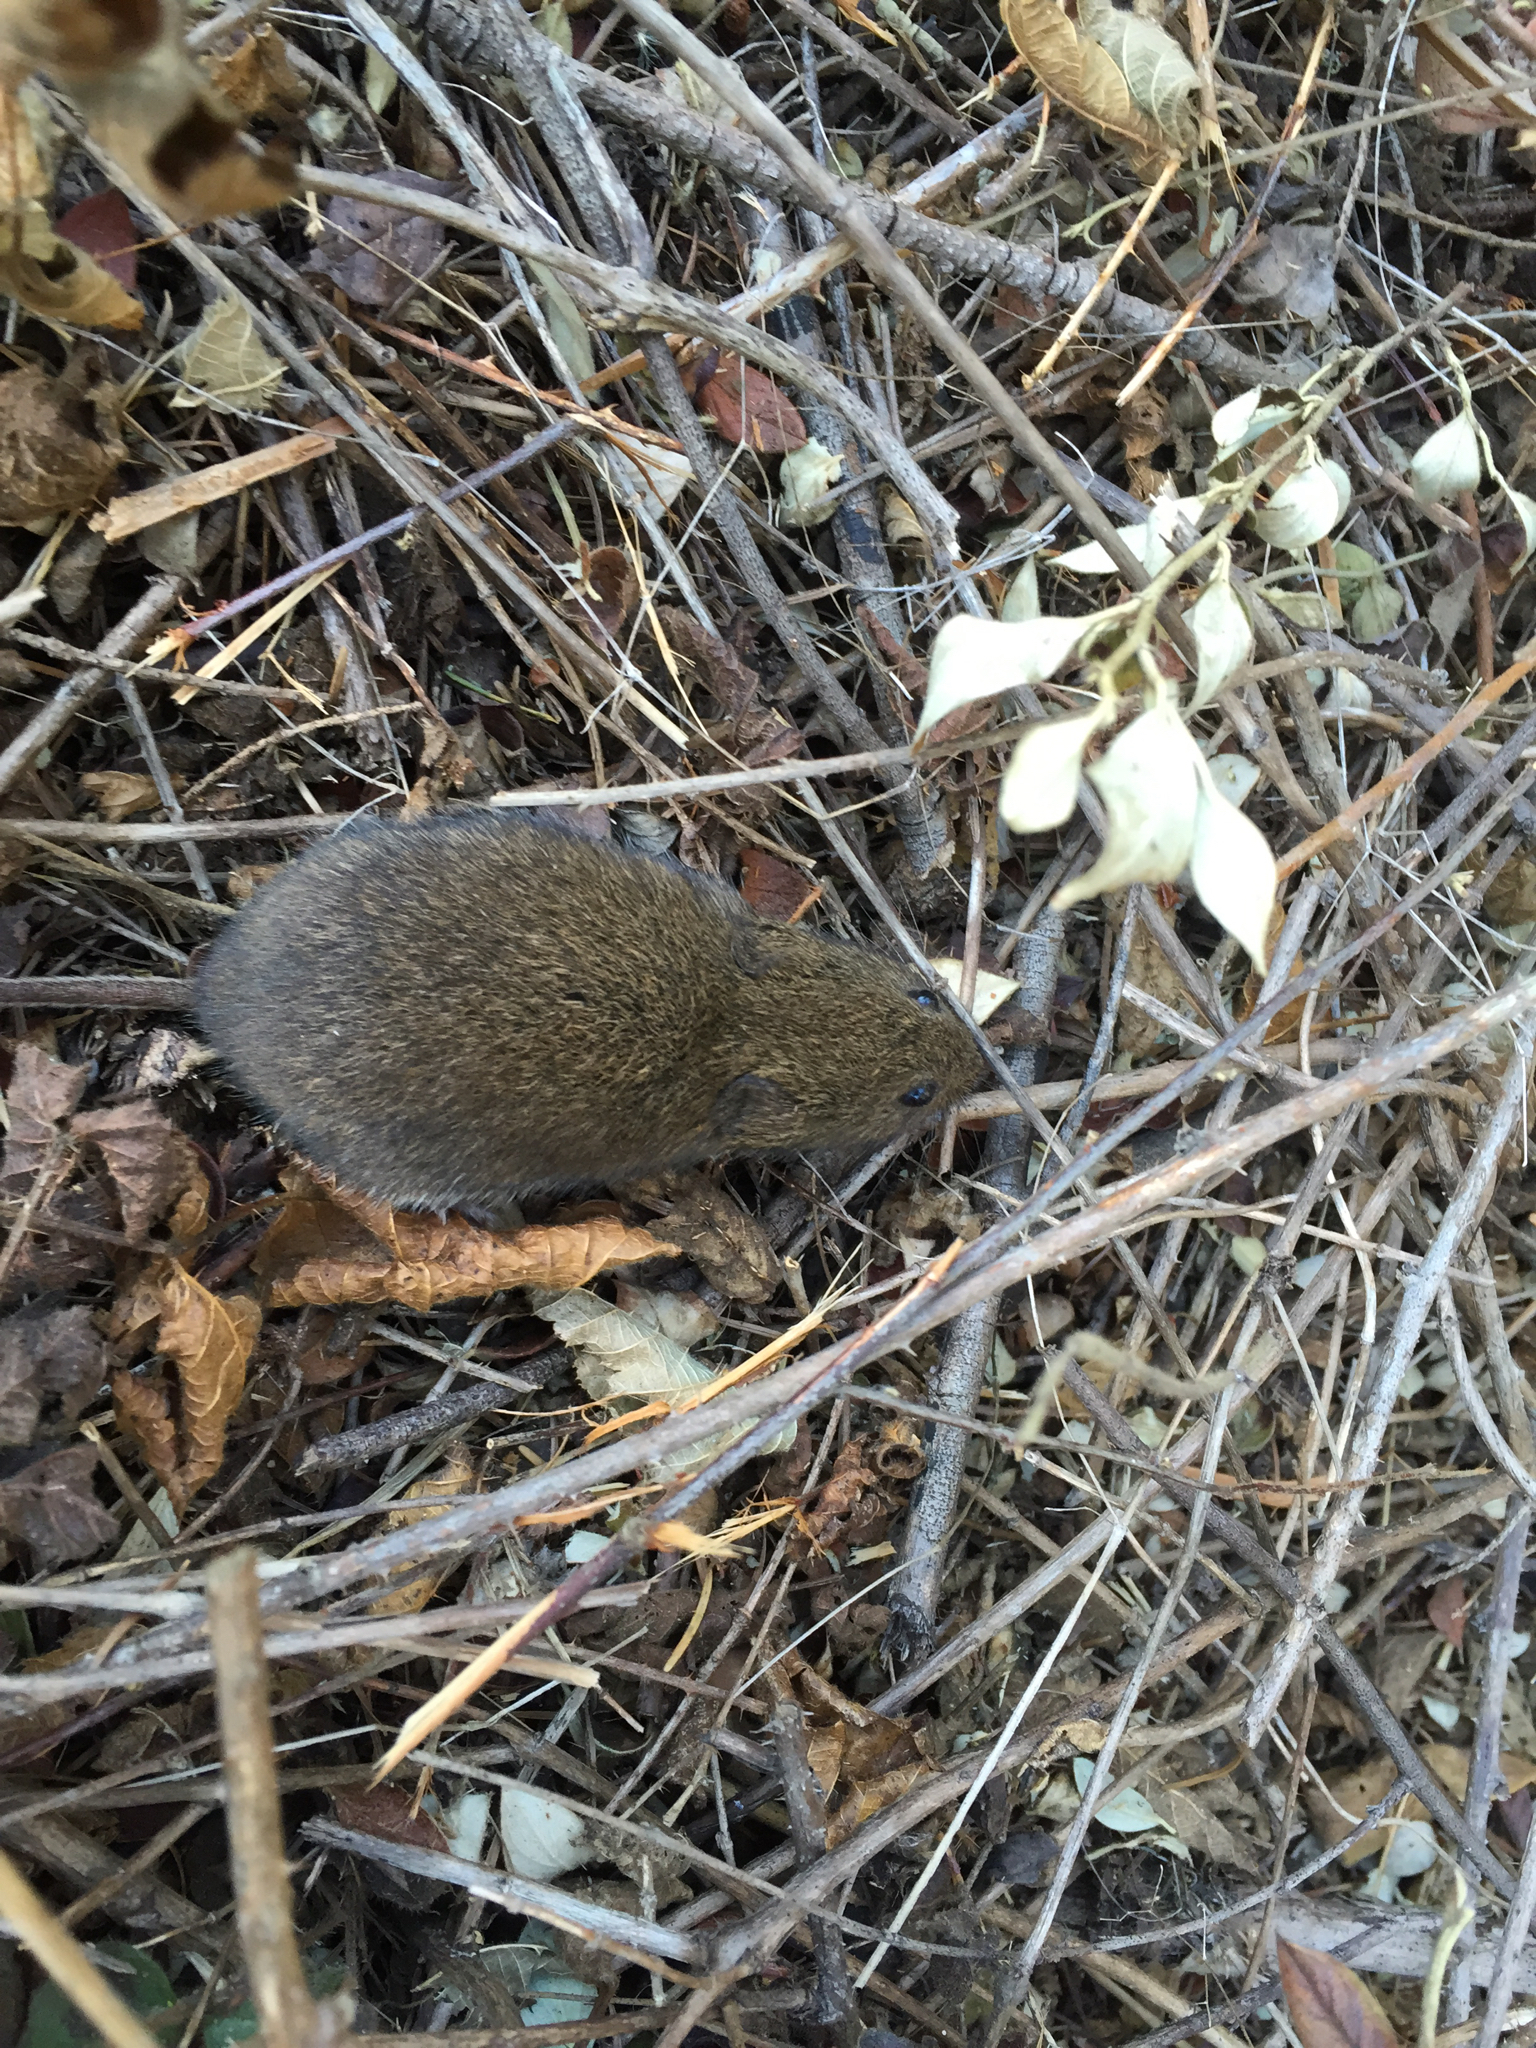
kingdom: Animalia
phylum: Chordata
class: Mammalia
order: Rodentia
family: Cricetidae
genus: Microtus
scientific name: Microtus californicus
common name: California vole
